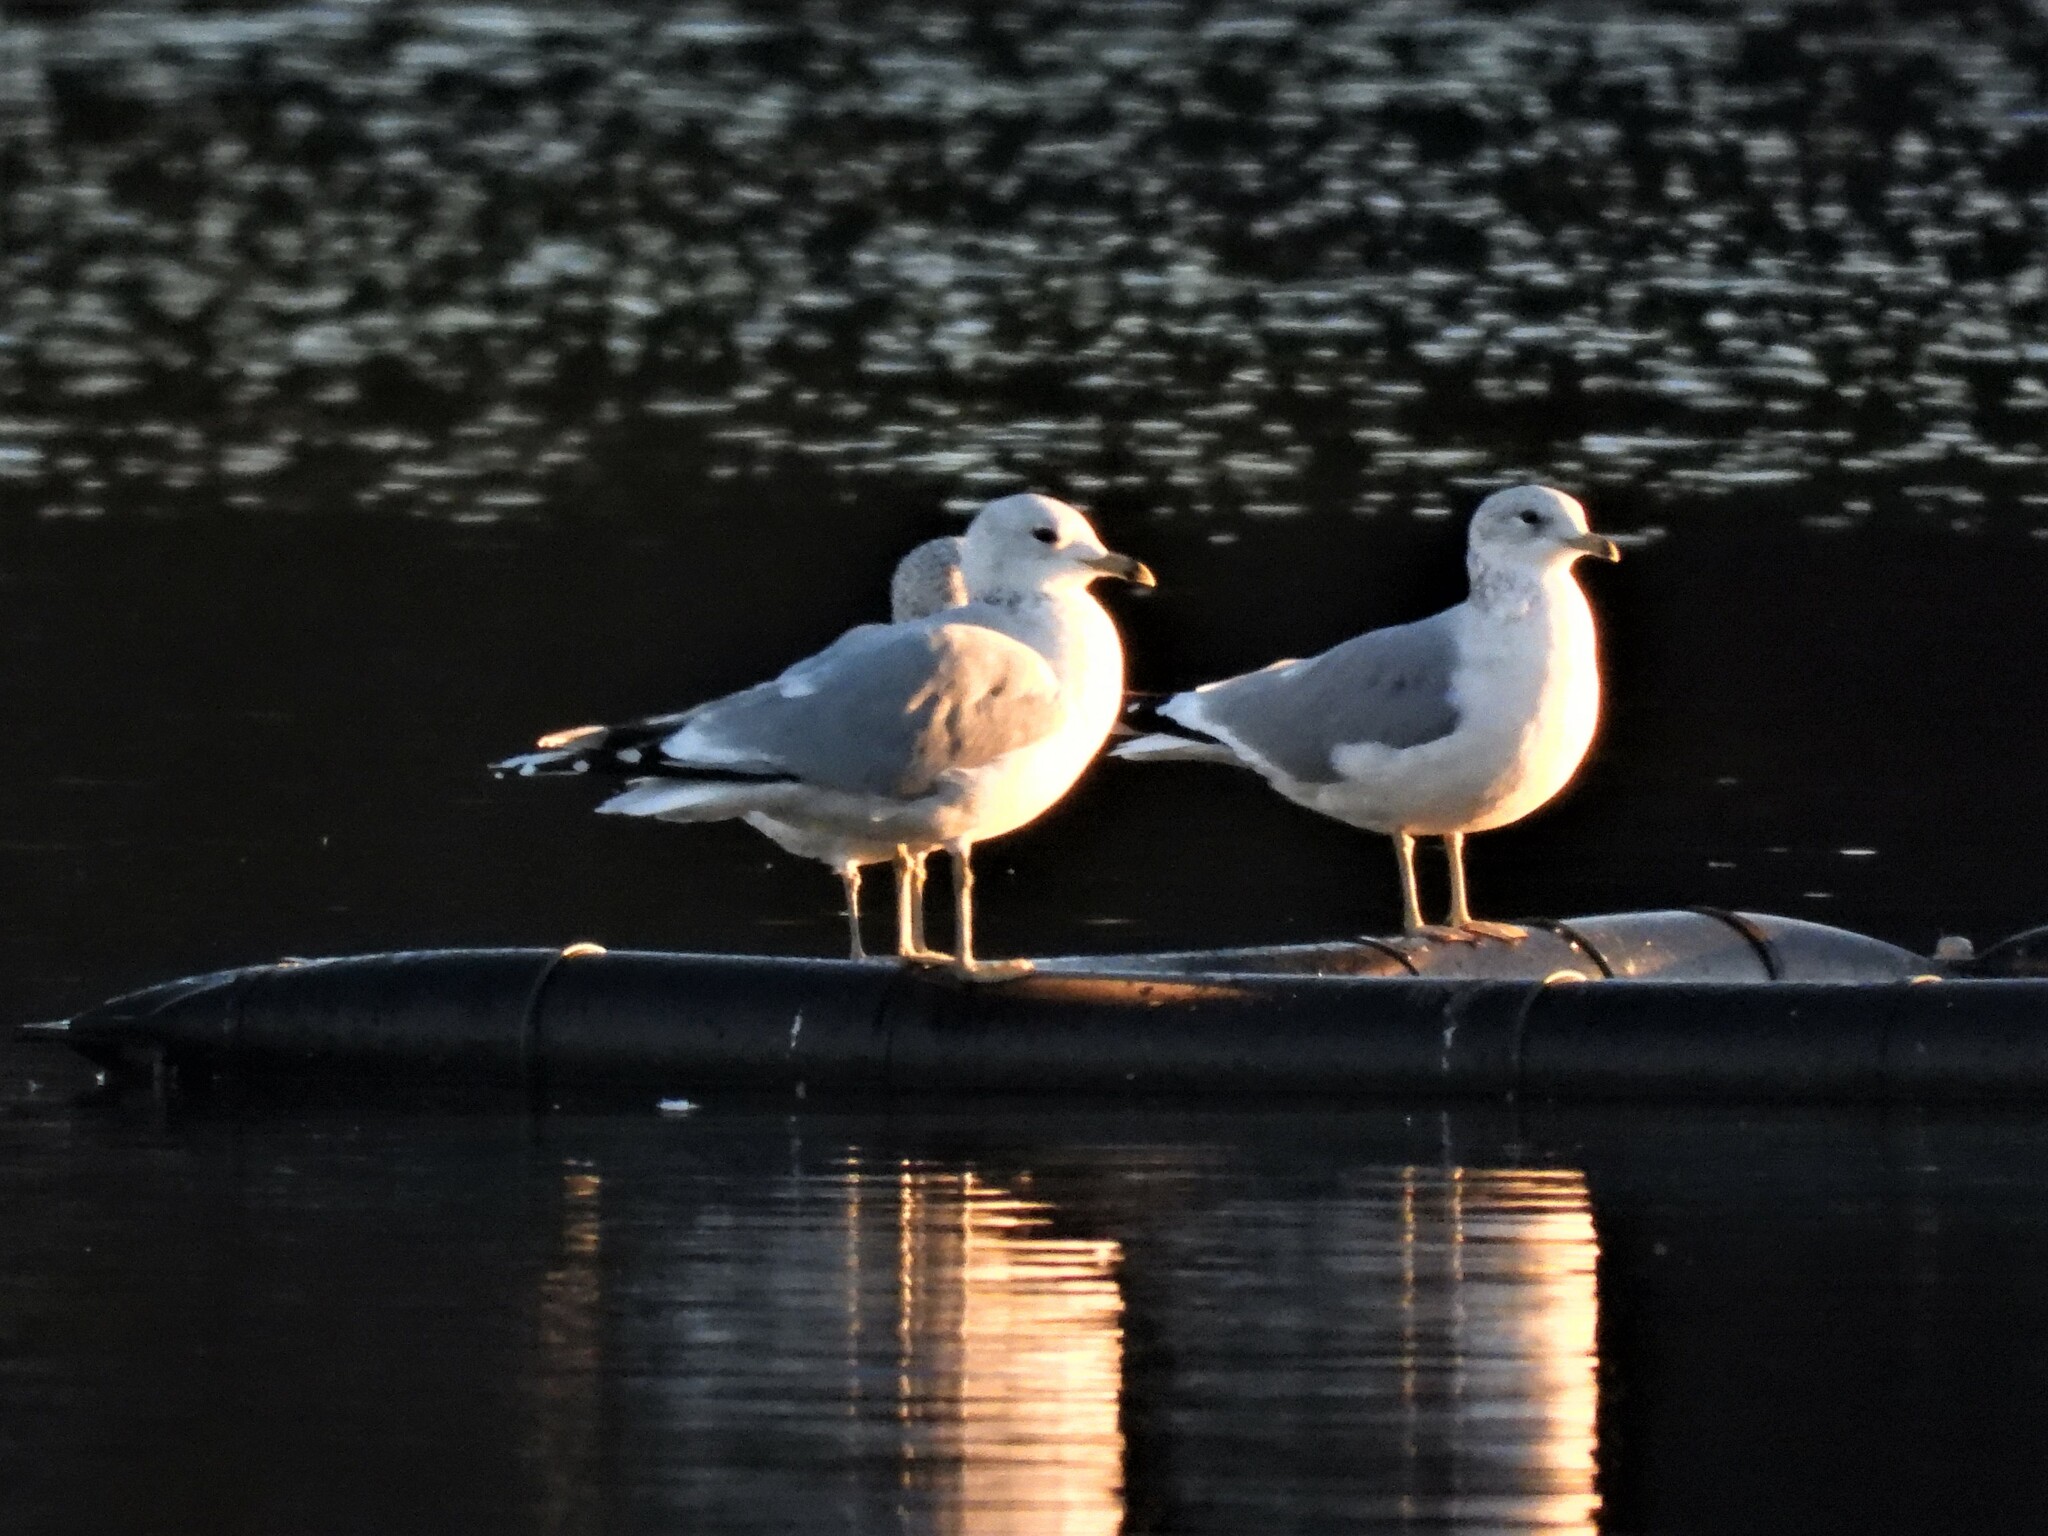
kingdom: Animalia
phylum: Chordata
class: Aves
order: Charadriiformes
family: Laridae
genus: Larus
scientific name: Larus canus
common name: Mew gull
